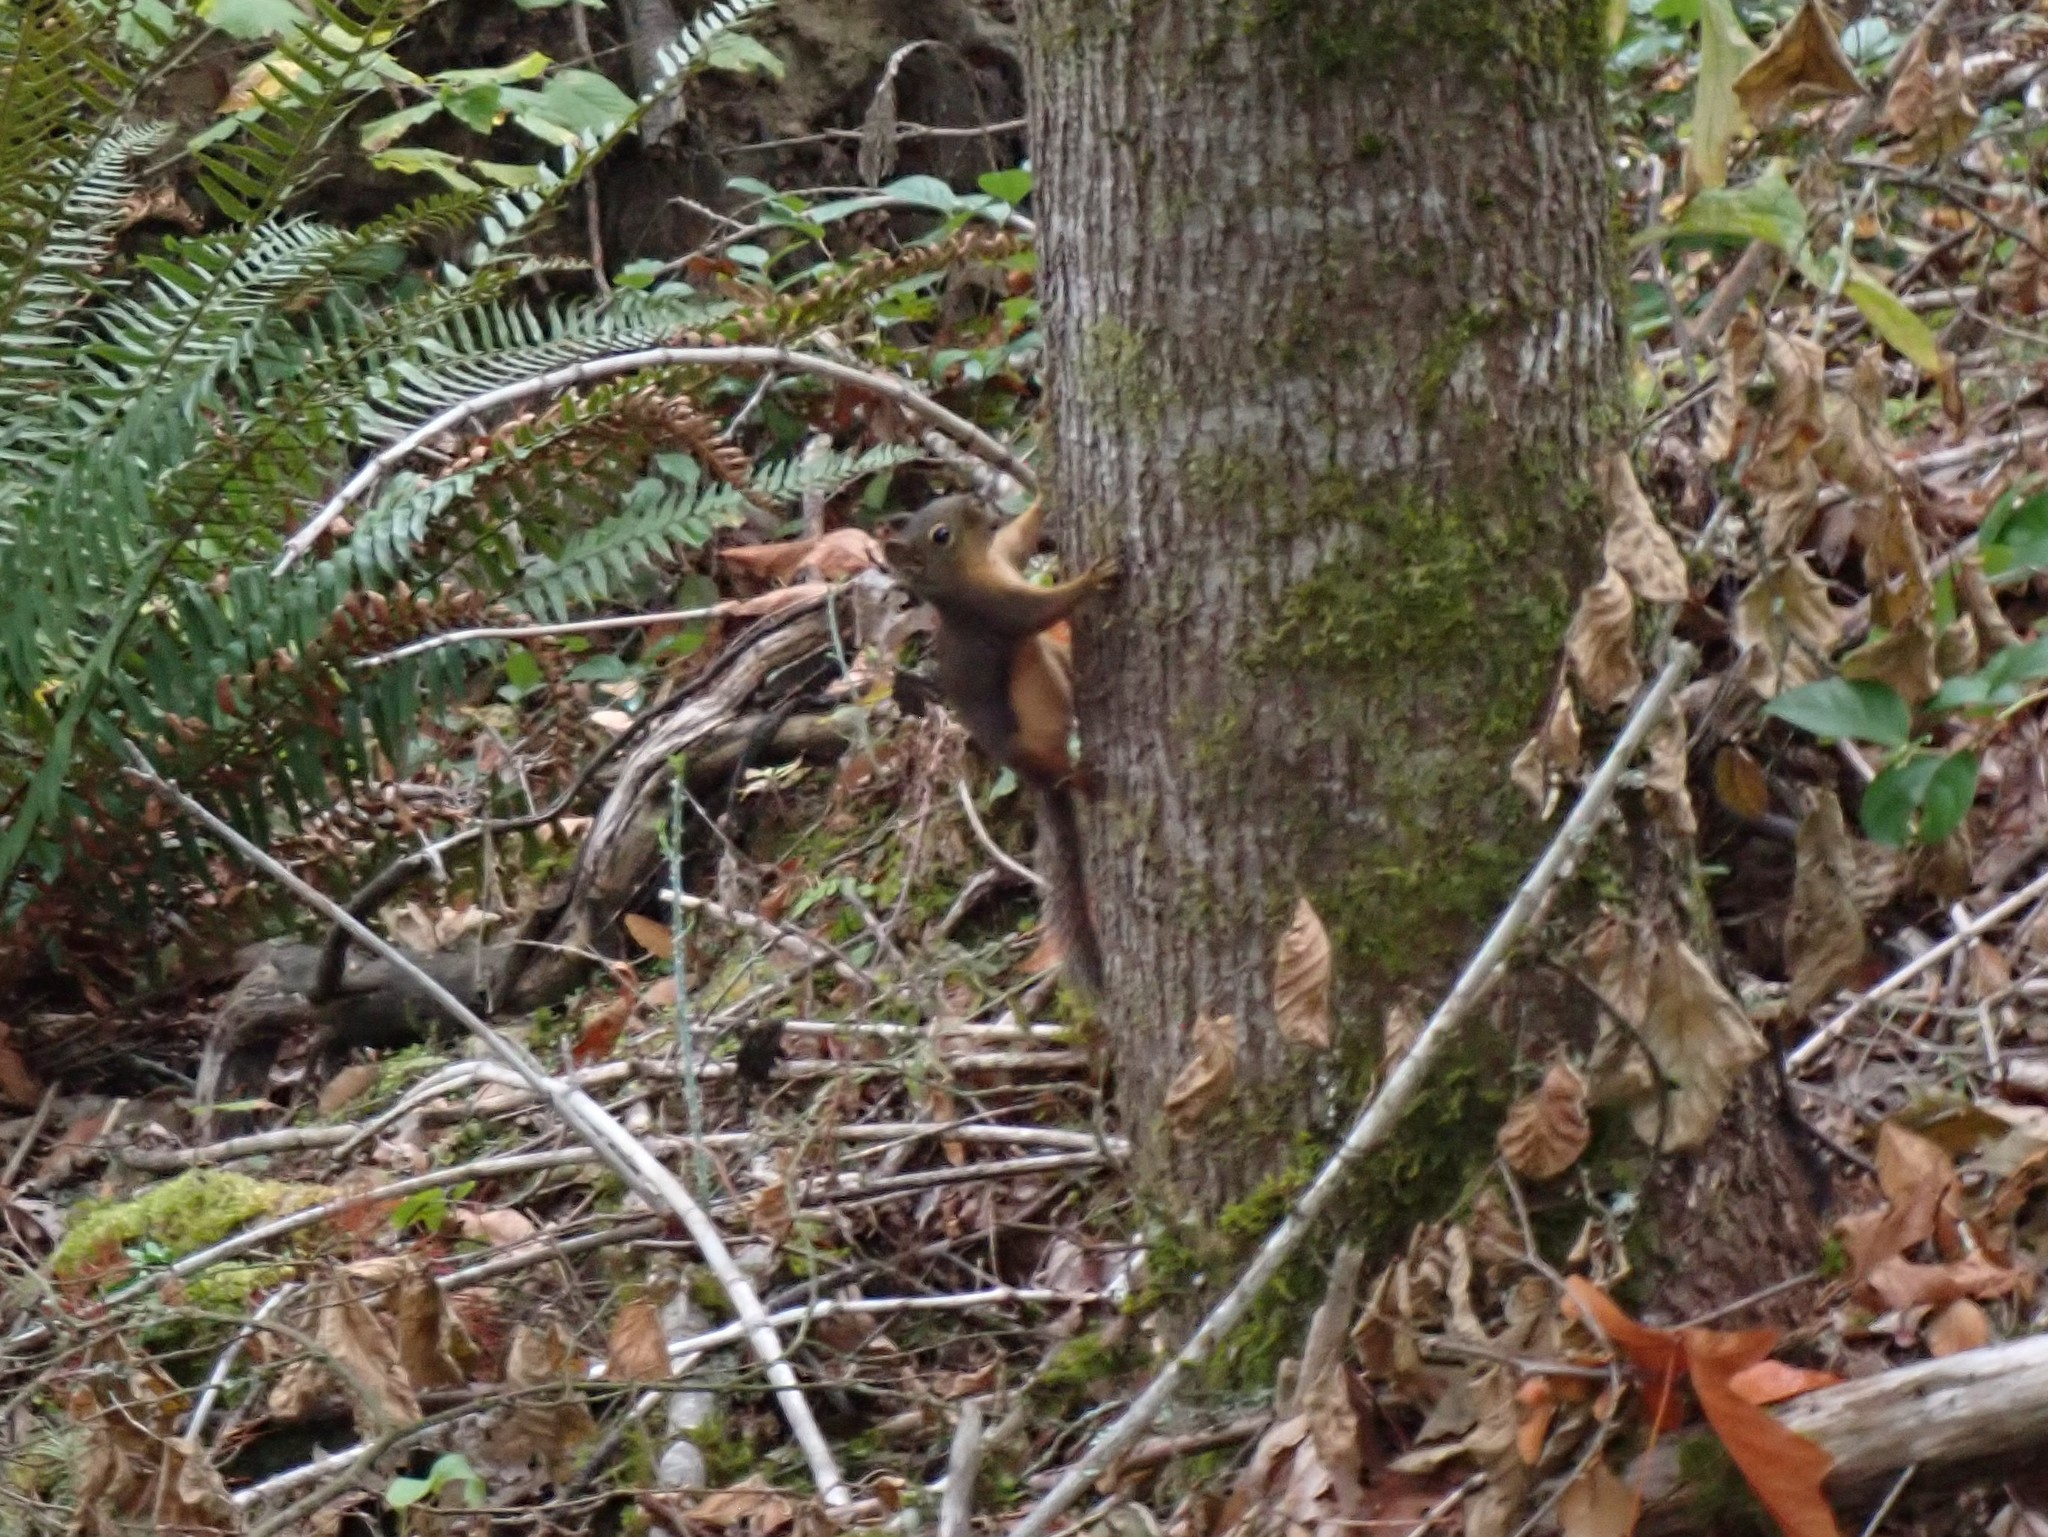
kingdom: Animalia
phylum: Chordata
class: Mammalia
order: Rodentia
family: Sciuridae
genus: Tamiasciurus
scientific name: Tamiasciurus douglasii
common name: Douglas's squirrel
